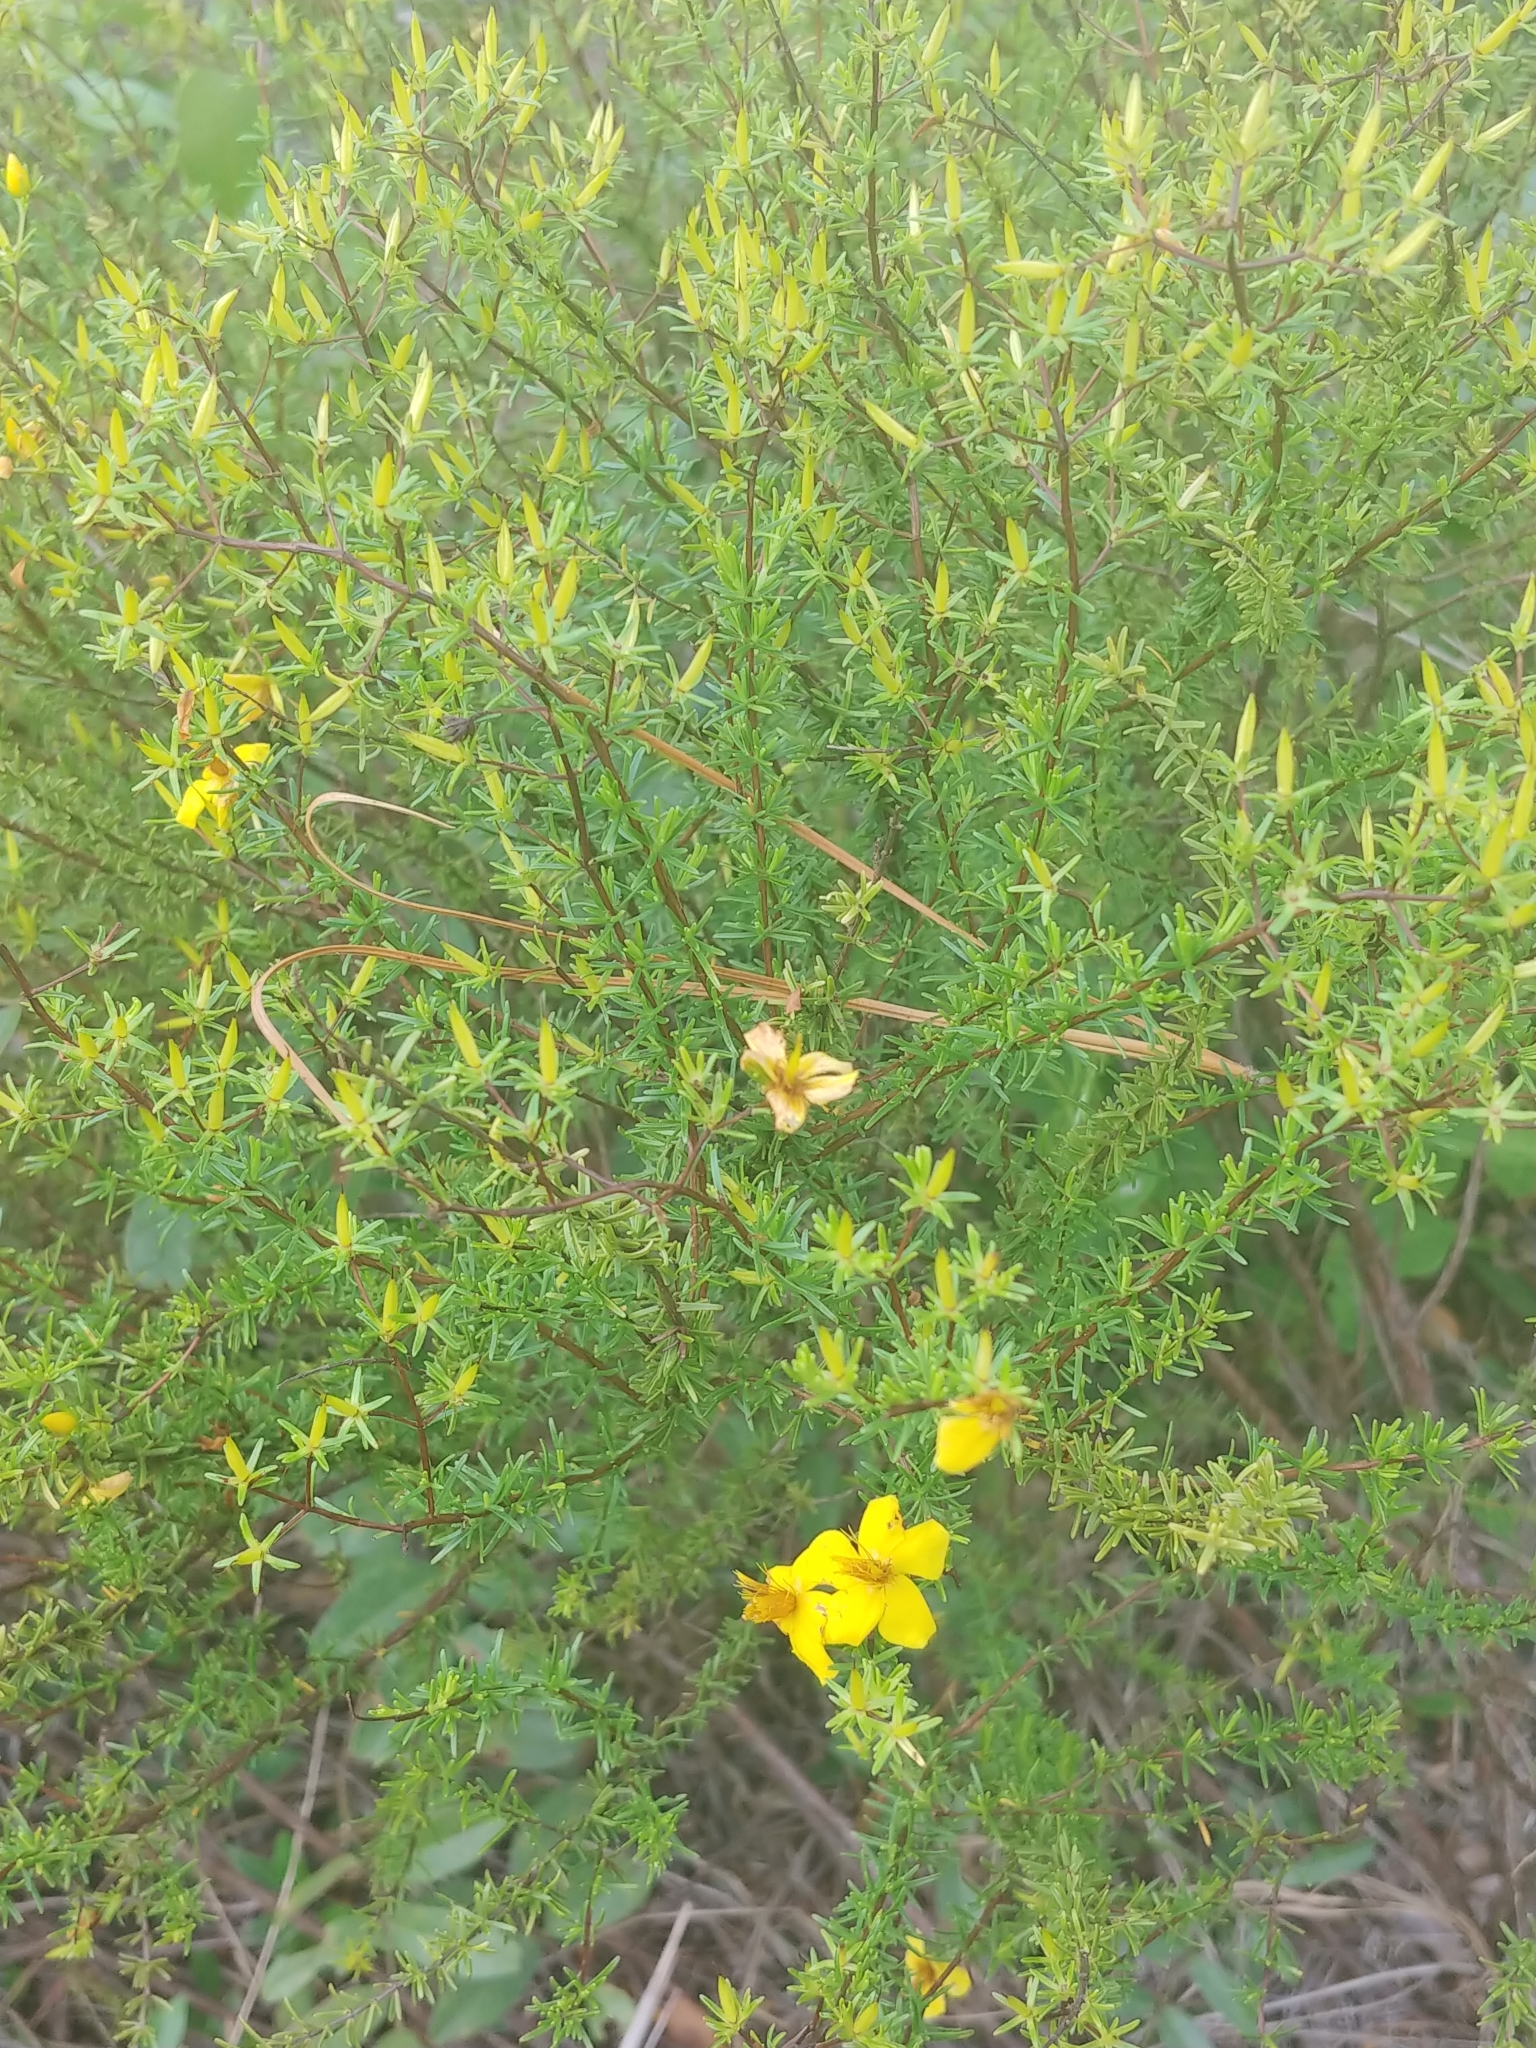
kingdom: Plantae
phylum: Tracheophyta
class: Magnoliopsida
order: Malpighiales
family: Hypericaceae
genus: Hypericum
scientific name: Hypericum tenuifolium
